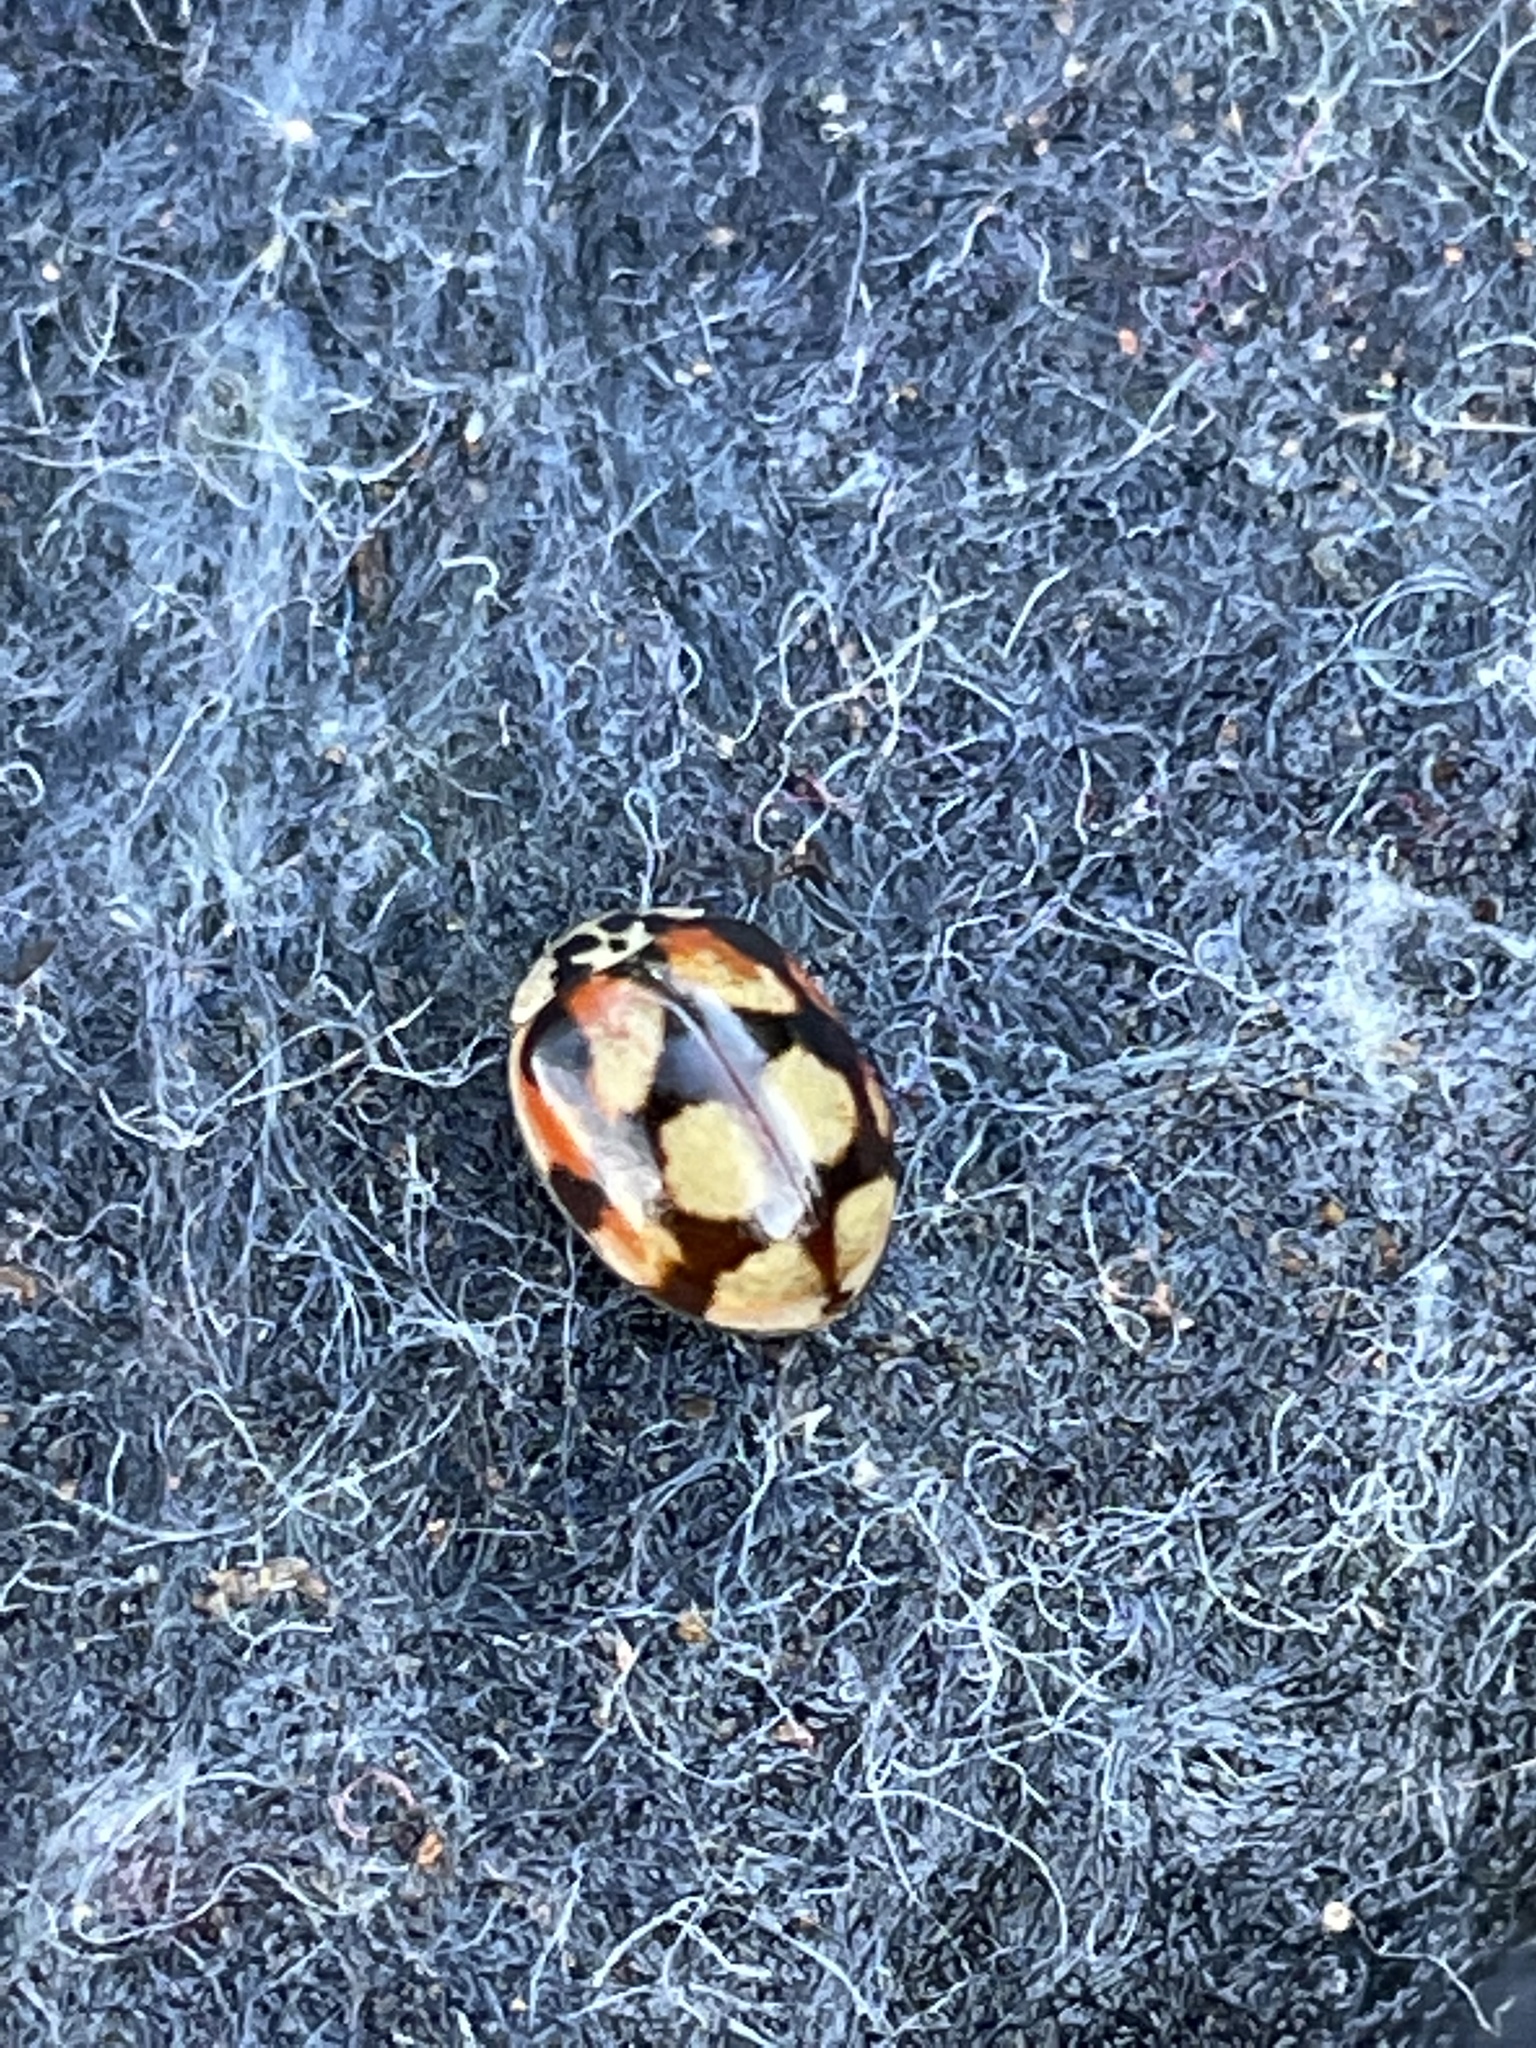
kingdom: Animalia
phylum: Arthropoda
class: Insecta
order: Coleoptera
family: Coccinellidae
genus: Adalia
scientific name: Adalia decempunctata
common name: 10-spot ladybird
